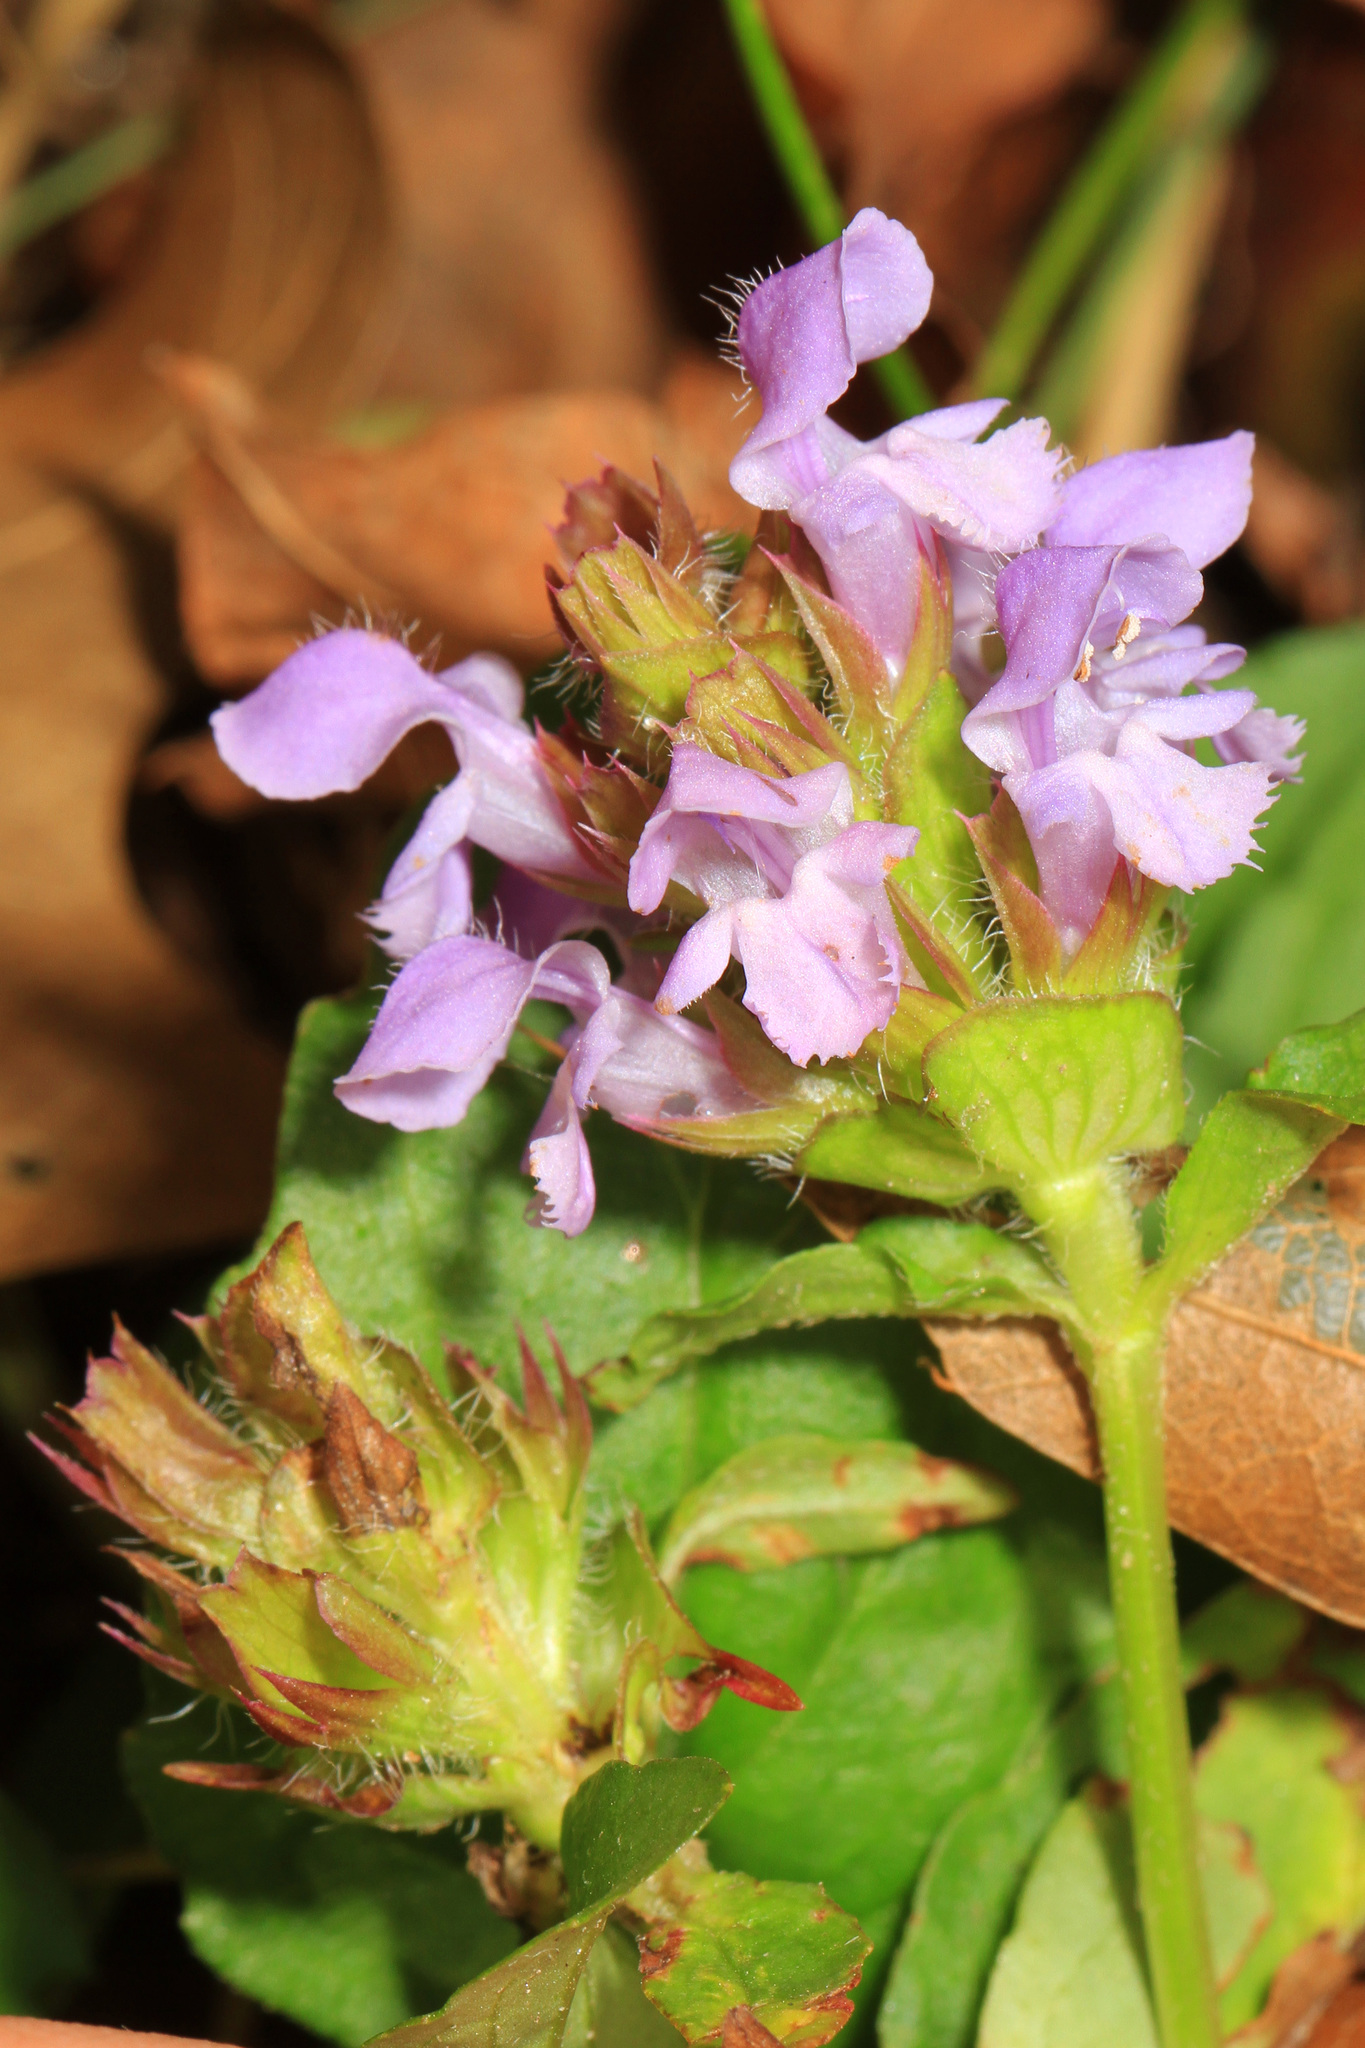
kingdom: Plantae
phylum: Tracheophyta
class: Magnoliopsida
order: Lamiales
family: Lamiaceae
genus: Prunella
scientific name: Prunella vulgaris
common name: Heal-all
